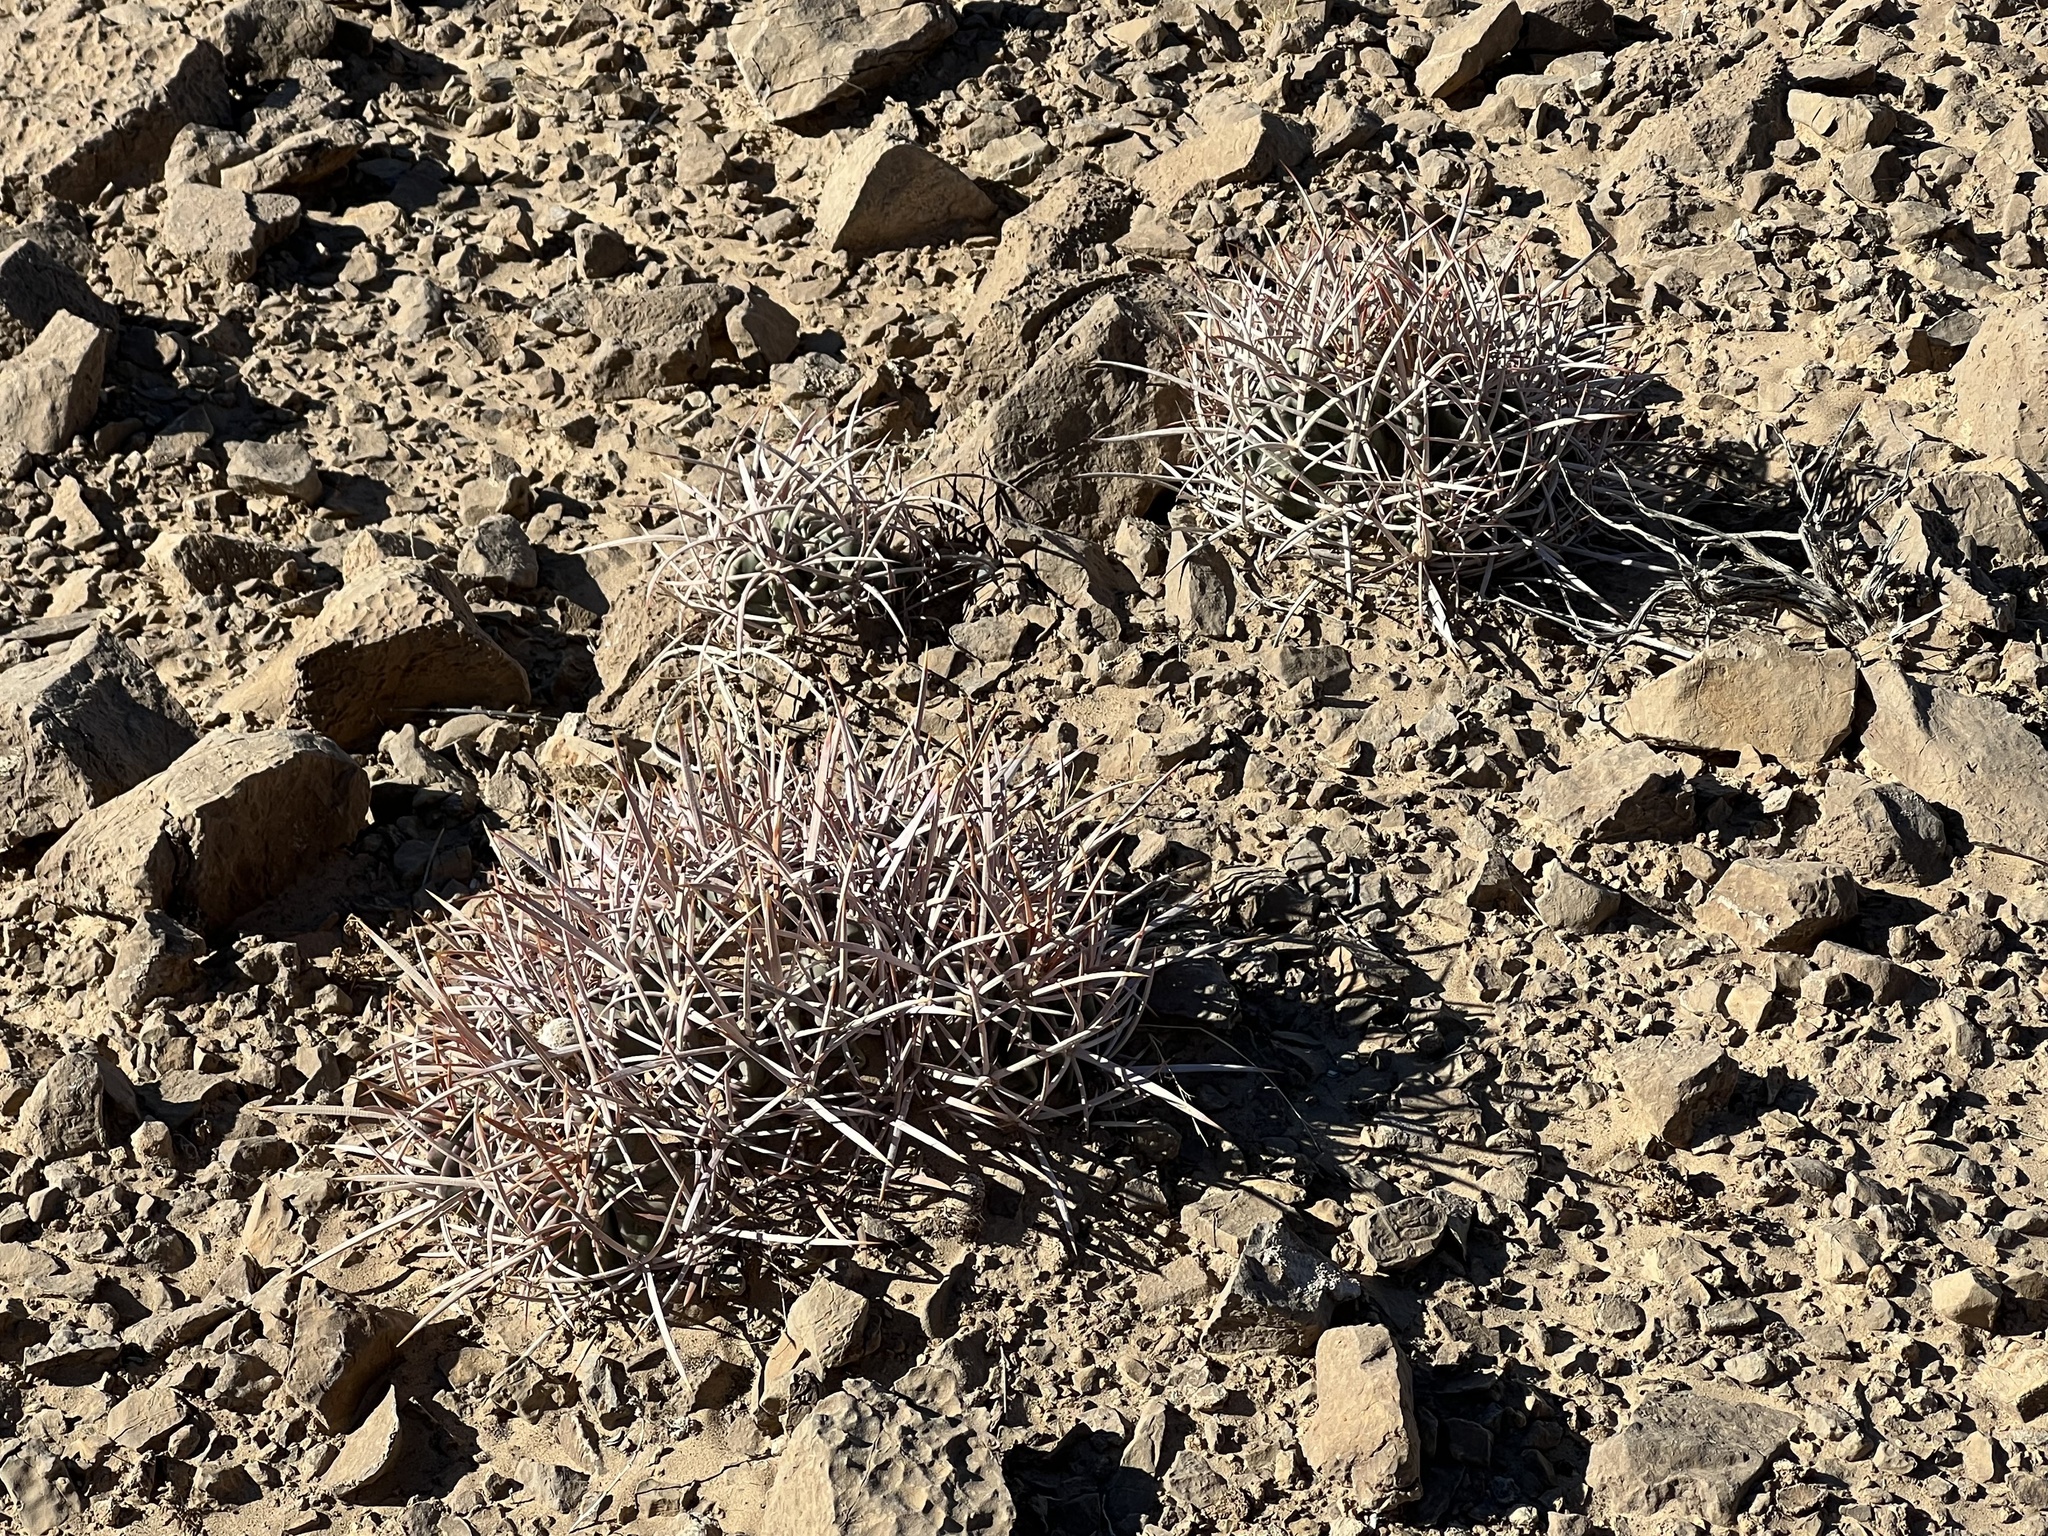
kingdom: Plantae
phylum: Tracheophyta
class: Magnoliopsida
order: Caryophyllales
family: Cactaceae
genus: Echinocactus
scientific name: Echinocactus polycephalus
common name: Cottontop cactus
